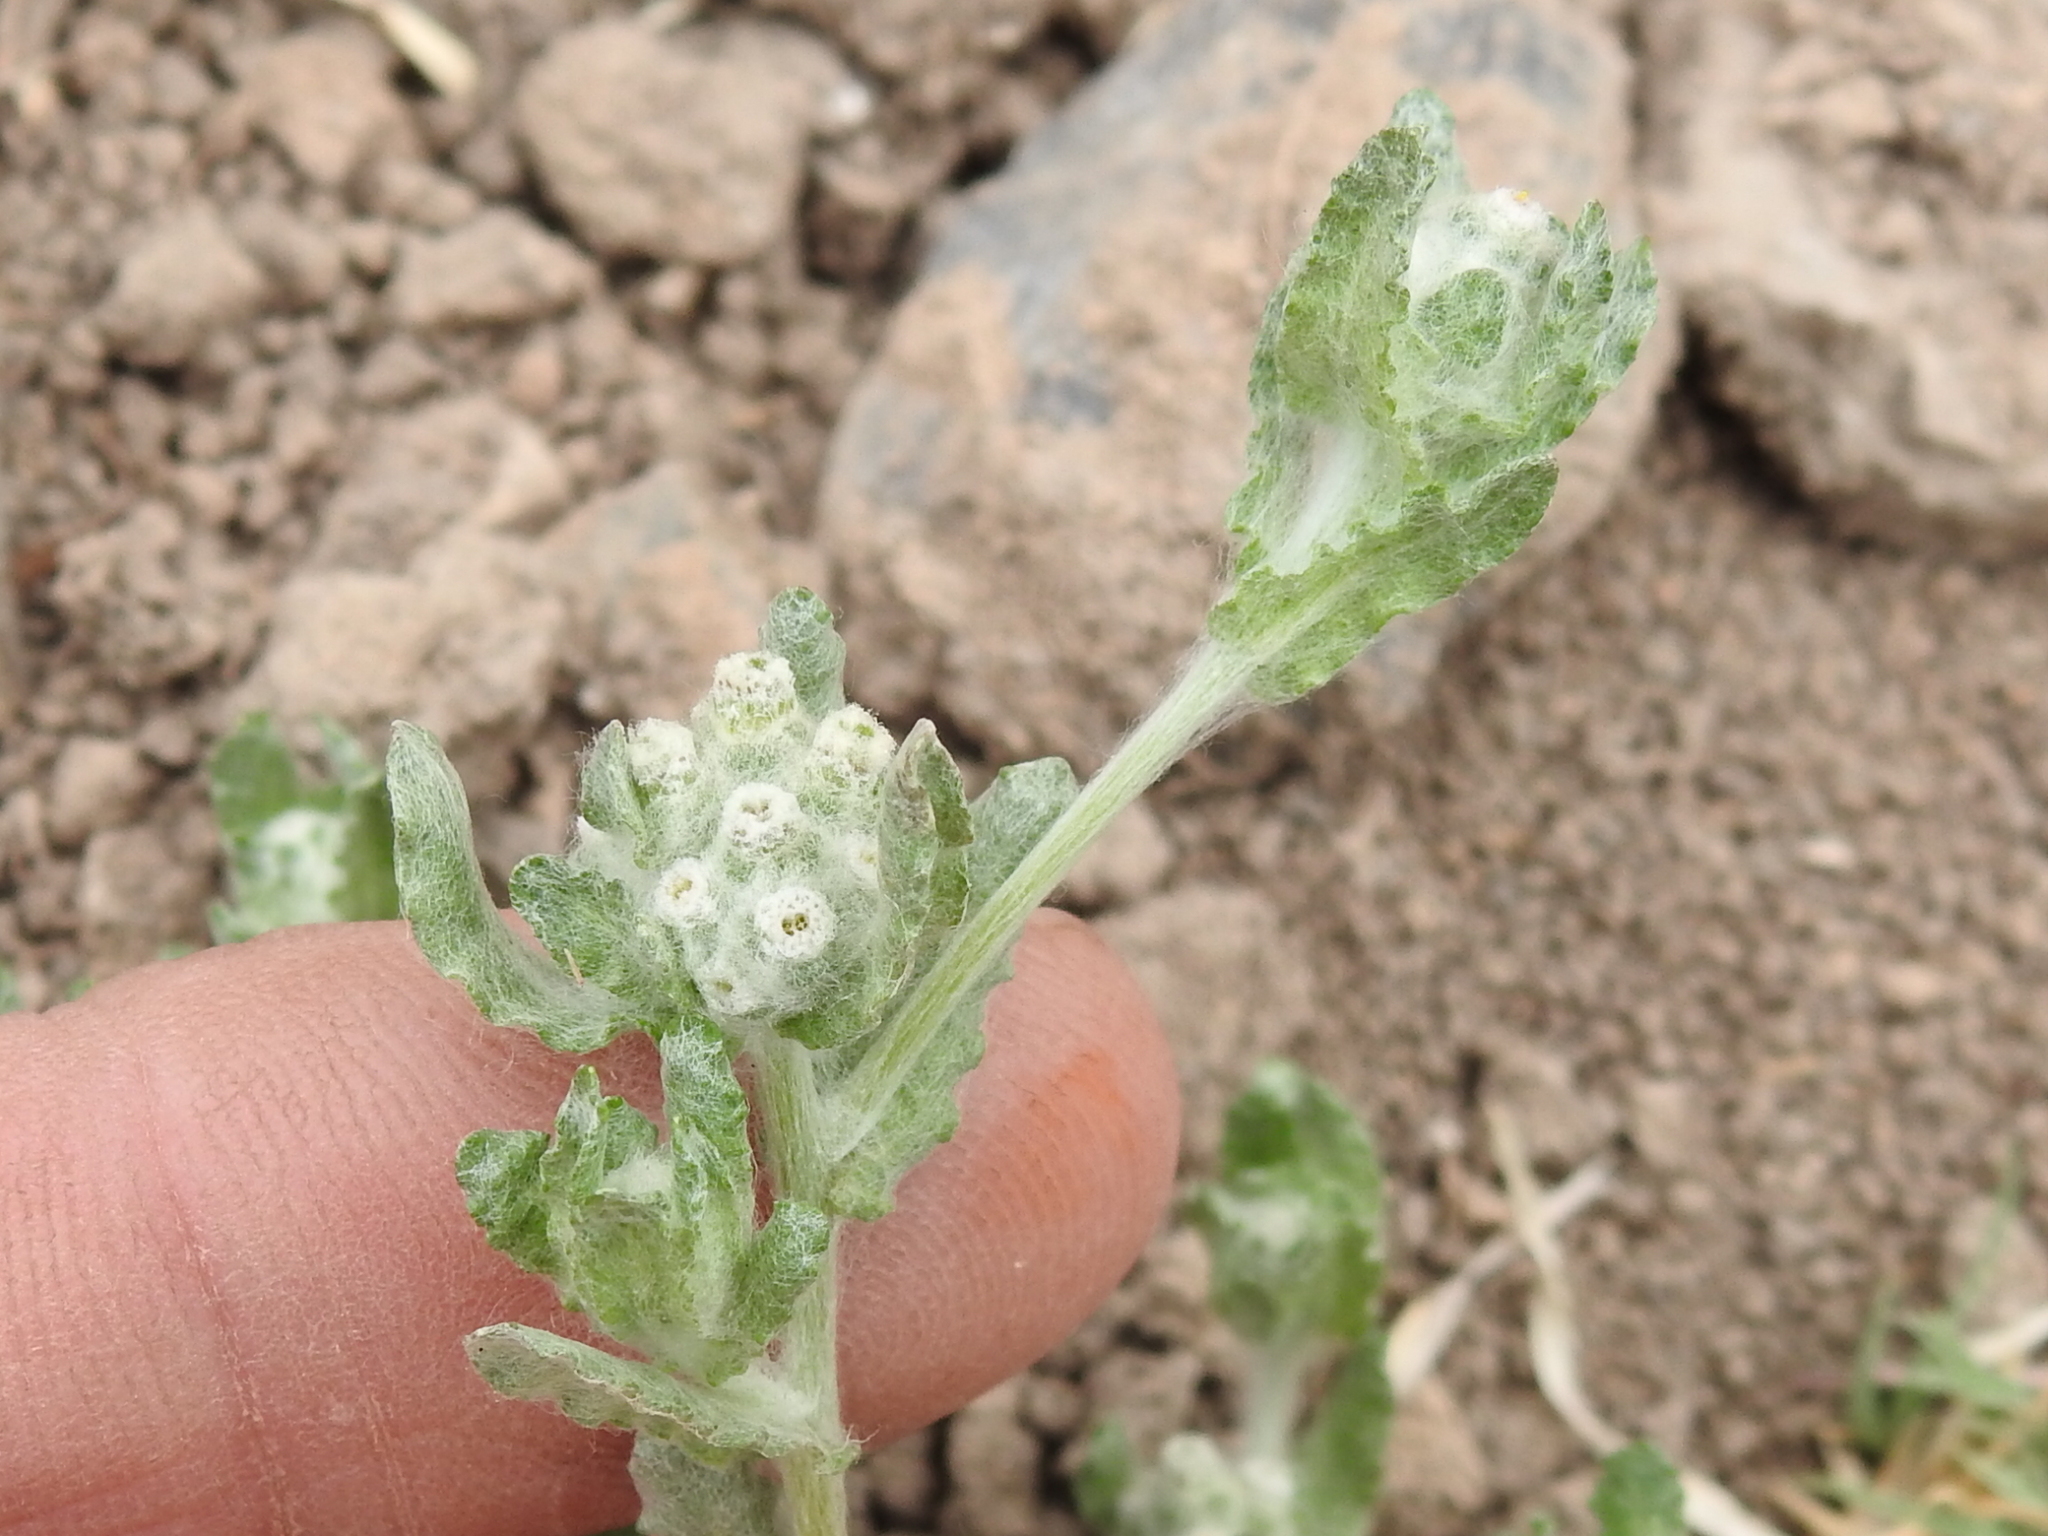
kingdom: Plantae
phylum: Tracheophyta
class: Magnoliopsida
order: Asterales
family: Asteraceae
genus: Diaperia
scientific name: Diaperia verna
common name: Many-stem rabbit-tobacco
